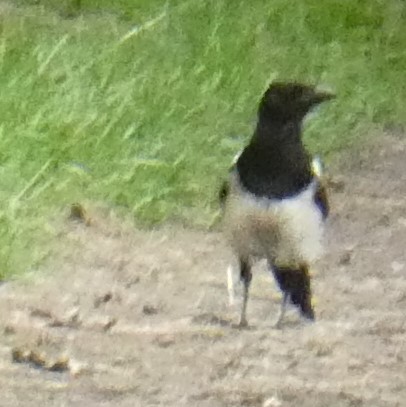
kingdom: Animalia
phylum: Chordata
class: Aves
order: Passeriformes
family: Corvidae
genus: Pica
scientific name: Pica pica
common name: Eurasian magpie
